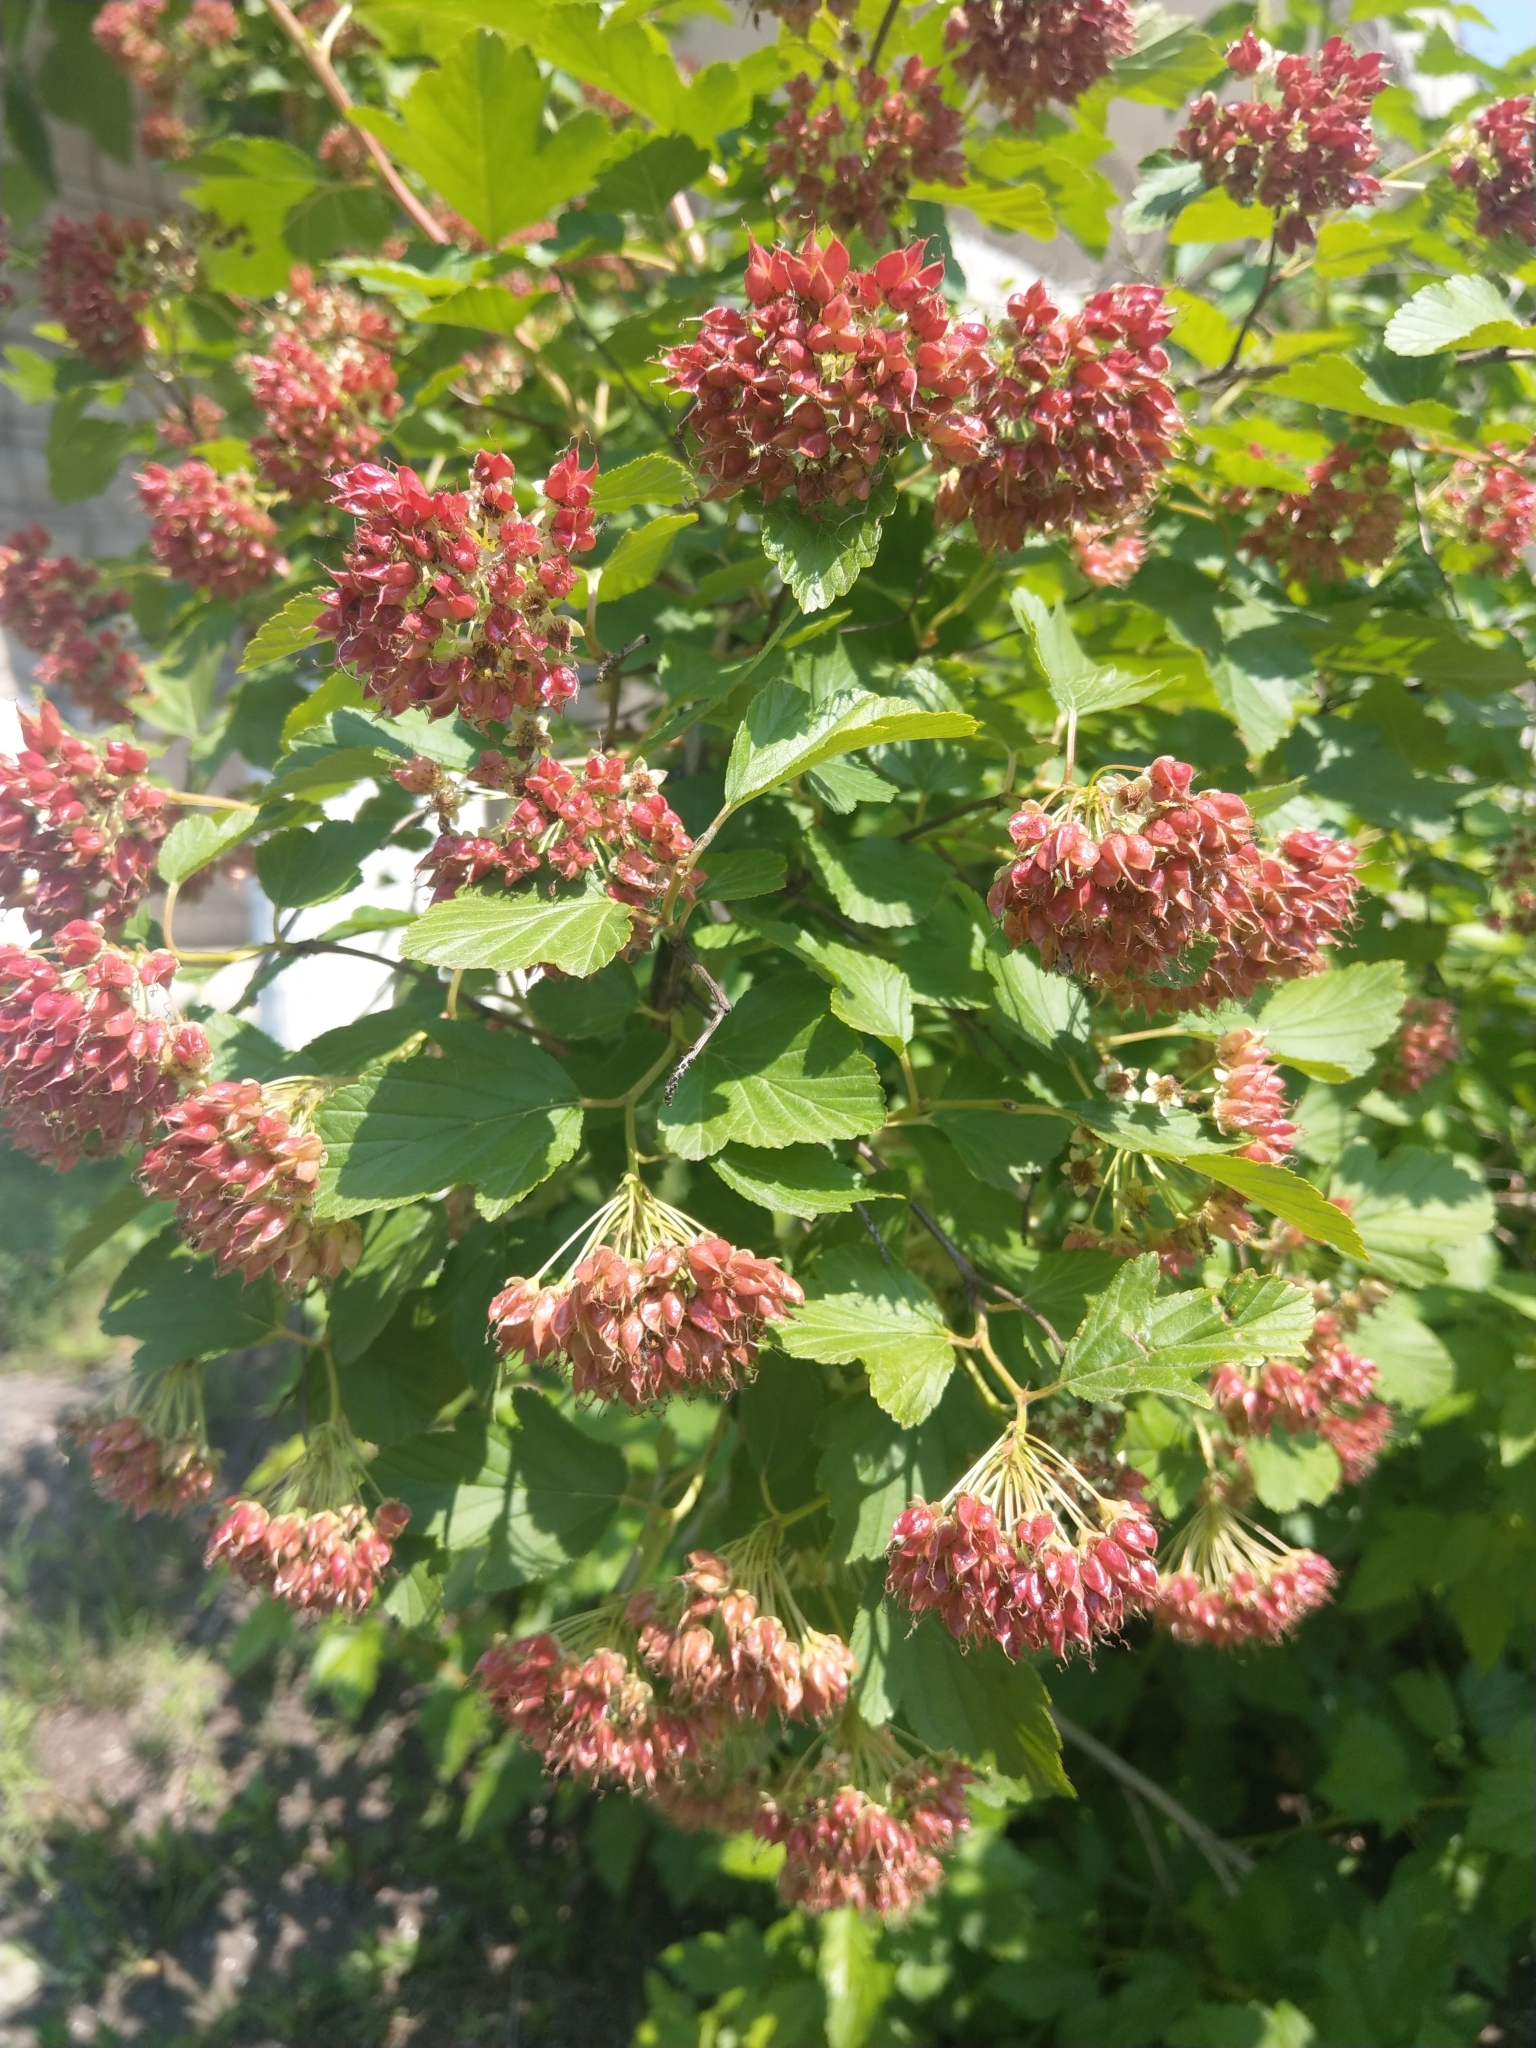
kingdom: Plantae
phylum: Tracheophyta
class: Magnoliopsida
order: Rosales
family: Rosaceae
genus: Physocarpus
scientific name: Physocarpus opulifolius
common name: Ninebark
